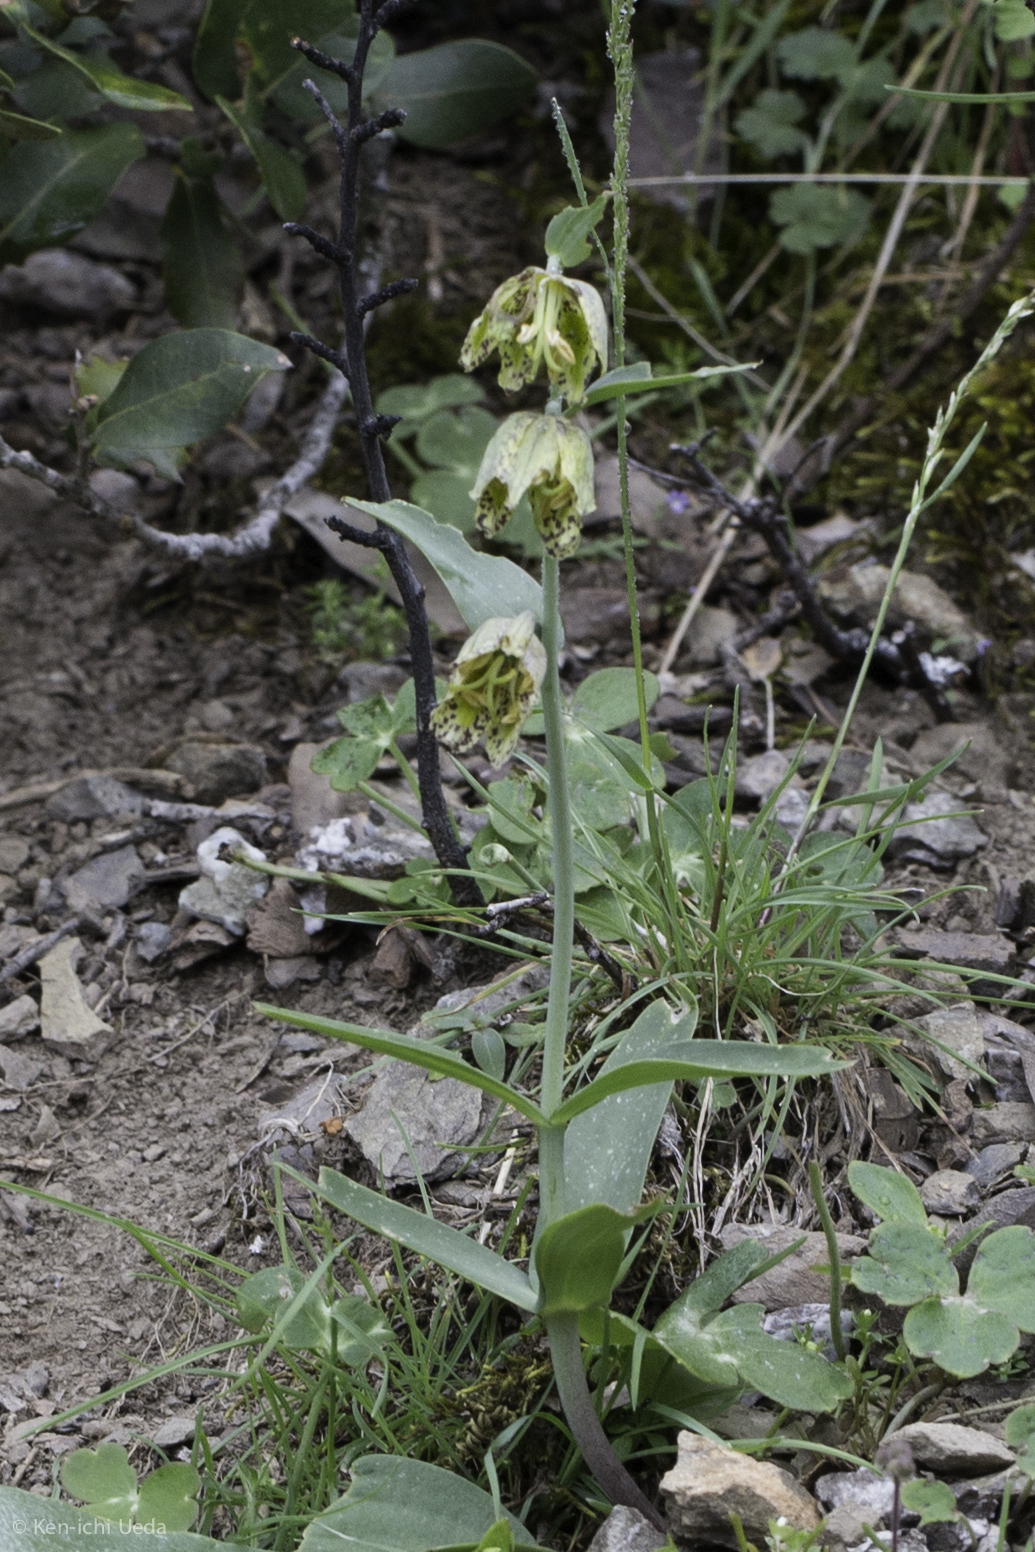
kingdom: Plantae
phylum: Tracheophyta
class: Liliopsida
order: Liliales
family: Liliaceae
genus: Fritillaria
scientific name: Fritillaria affinis
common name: Ojai fritillary
